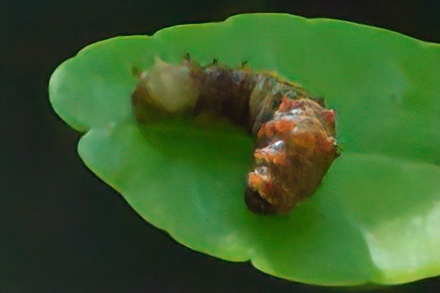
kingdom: Animalia
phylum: Arthropoda
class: Insecta
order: Lepidoptera
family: Papilionidae
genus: Papilio
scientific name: Papilio cresphontes
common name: Giant swallowtail
